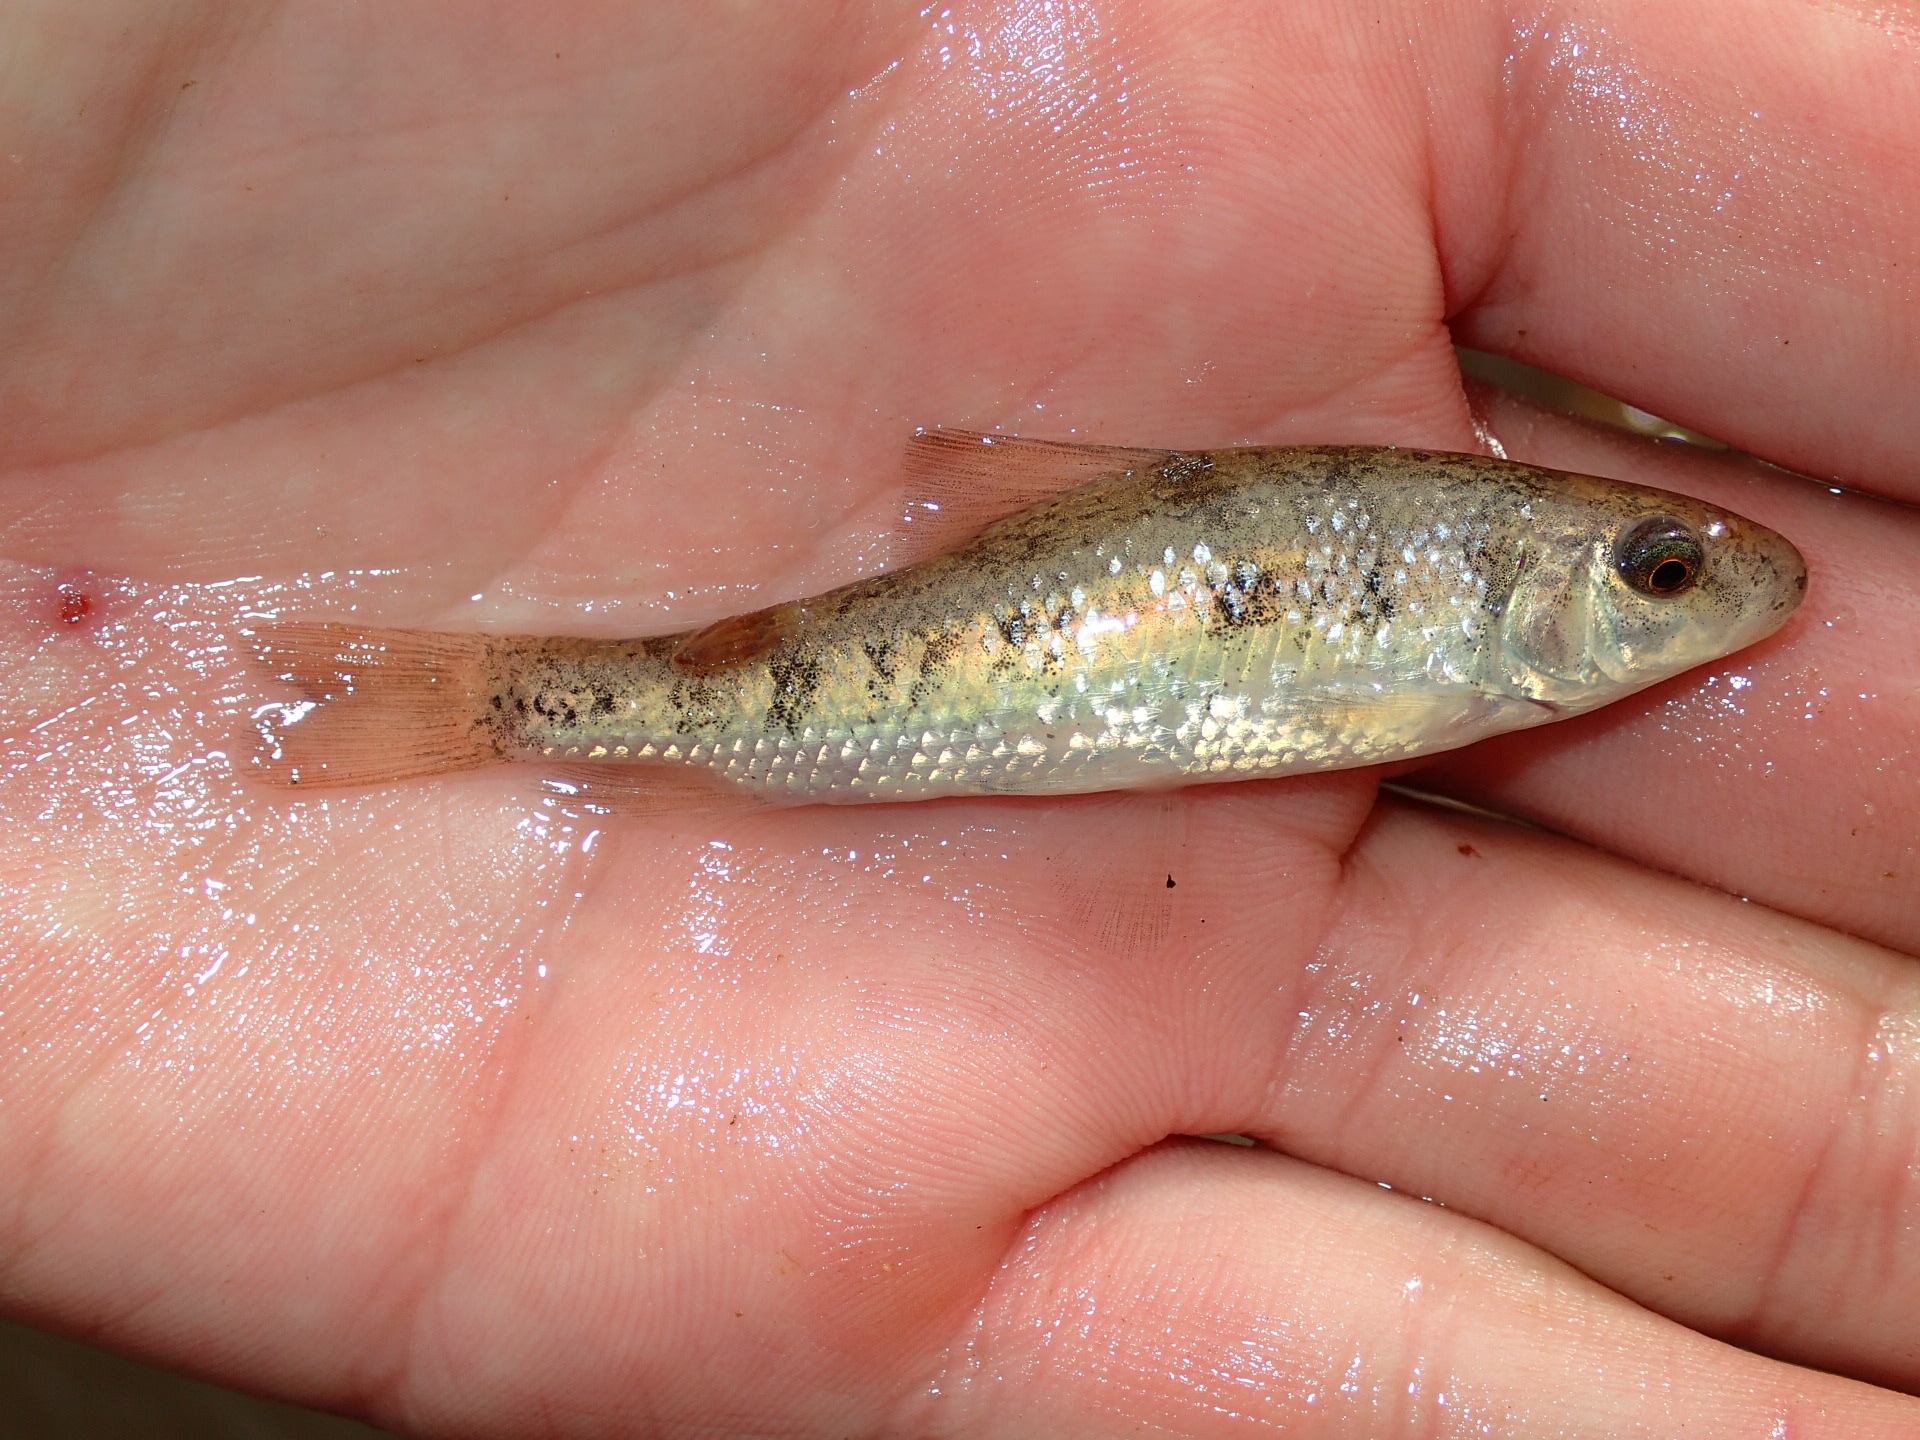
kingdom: Animalia
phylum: Chordata
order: Cypriniformes
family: Catostomidae
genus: Erimyzon
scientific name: Erimyzon claviformis
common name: Western creek chubsucker
